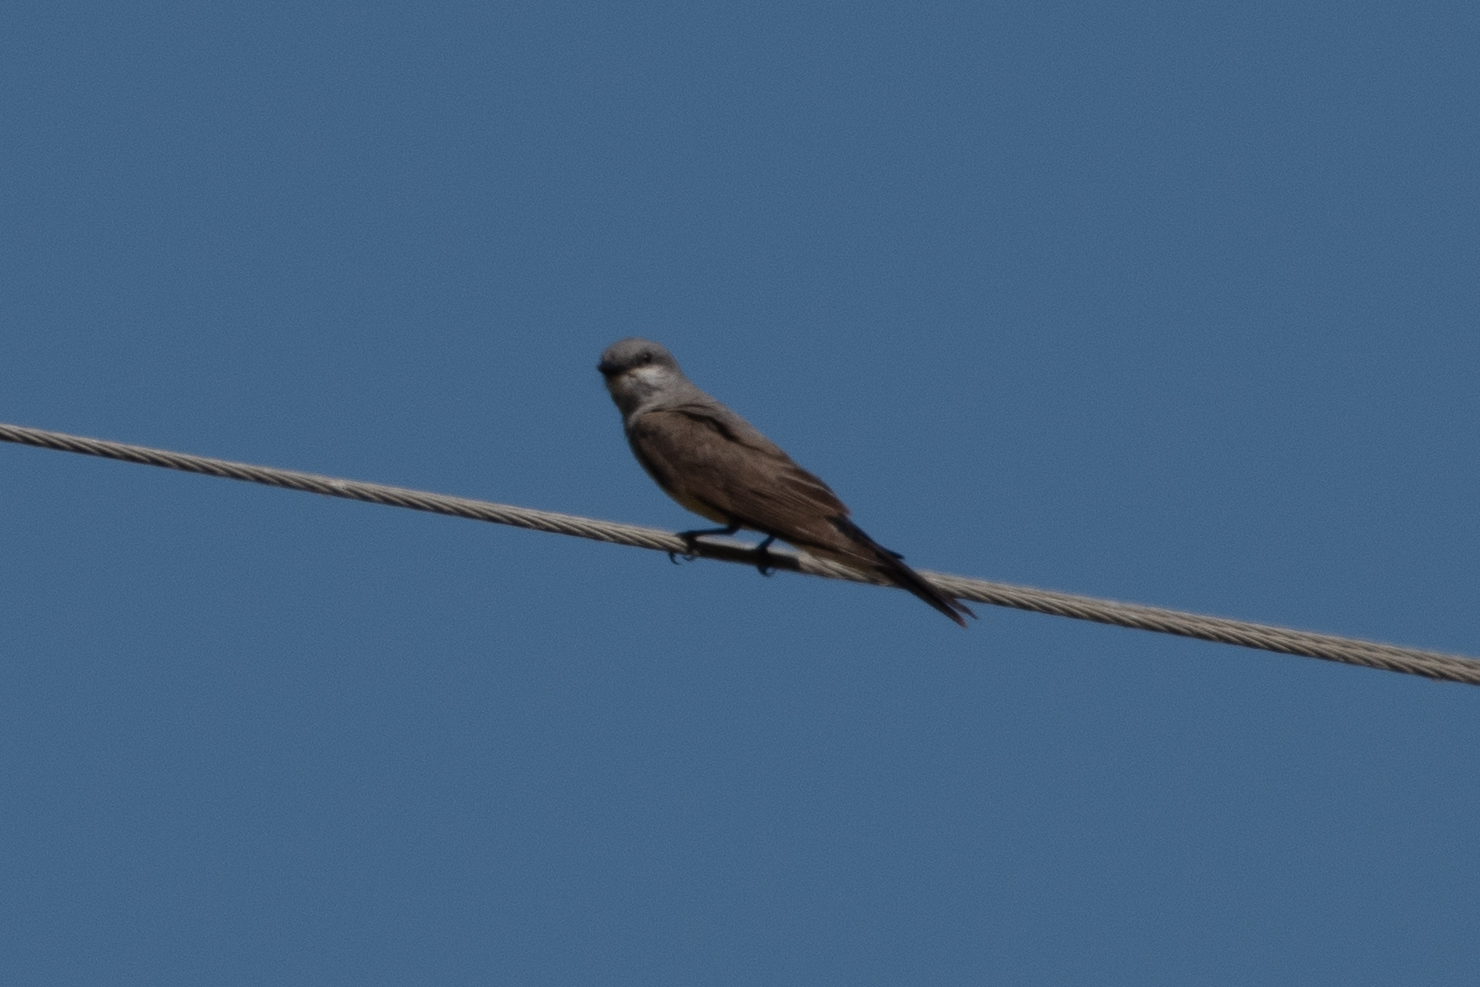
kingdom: Animalia
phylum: Chordata
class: Aves
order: Passeriformes
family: Tyrannidae
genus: Tyrannus
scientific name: Tyrannus verticalis
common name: Western kingbird
